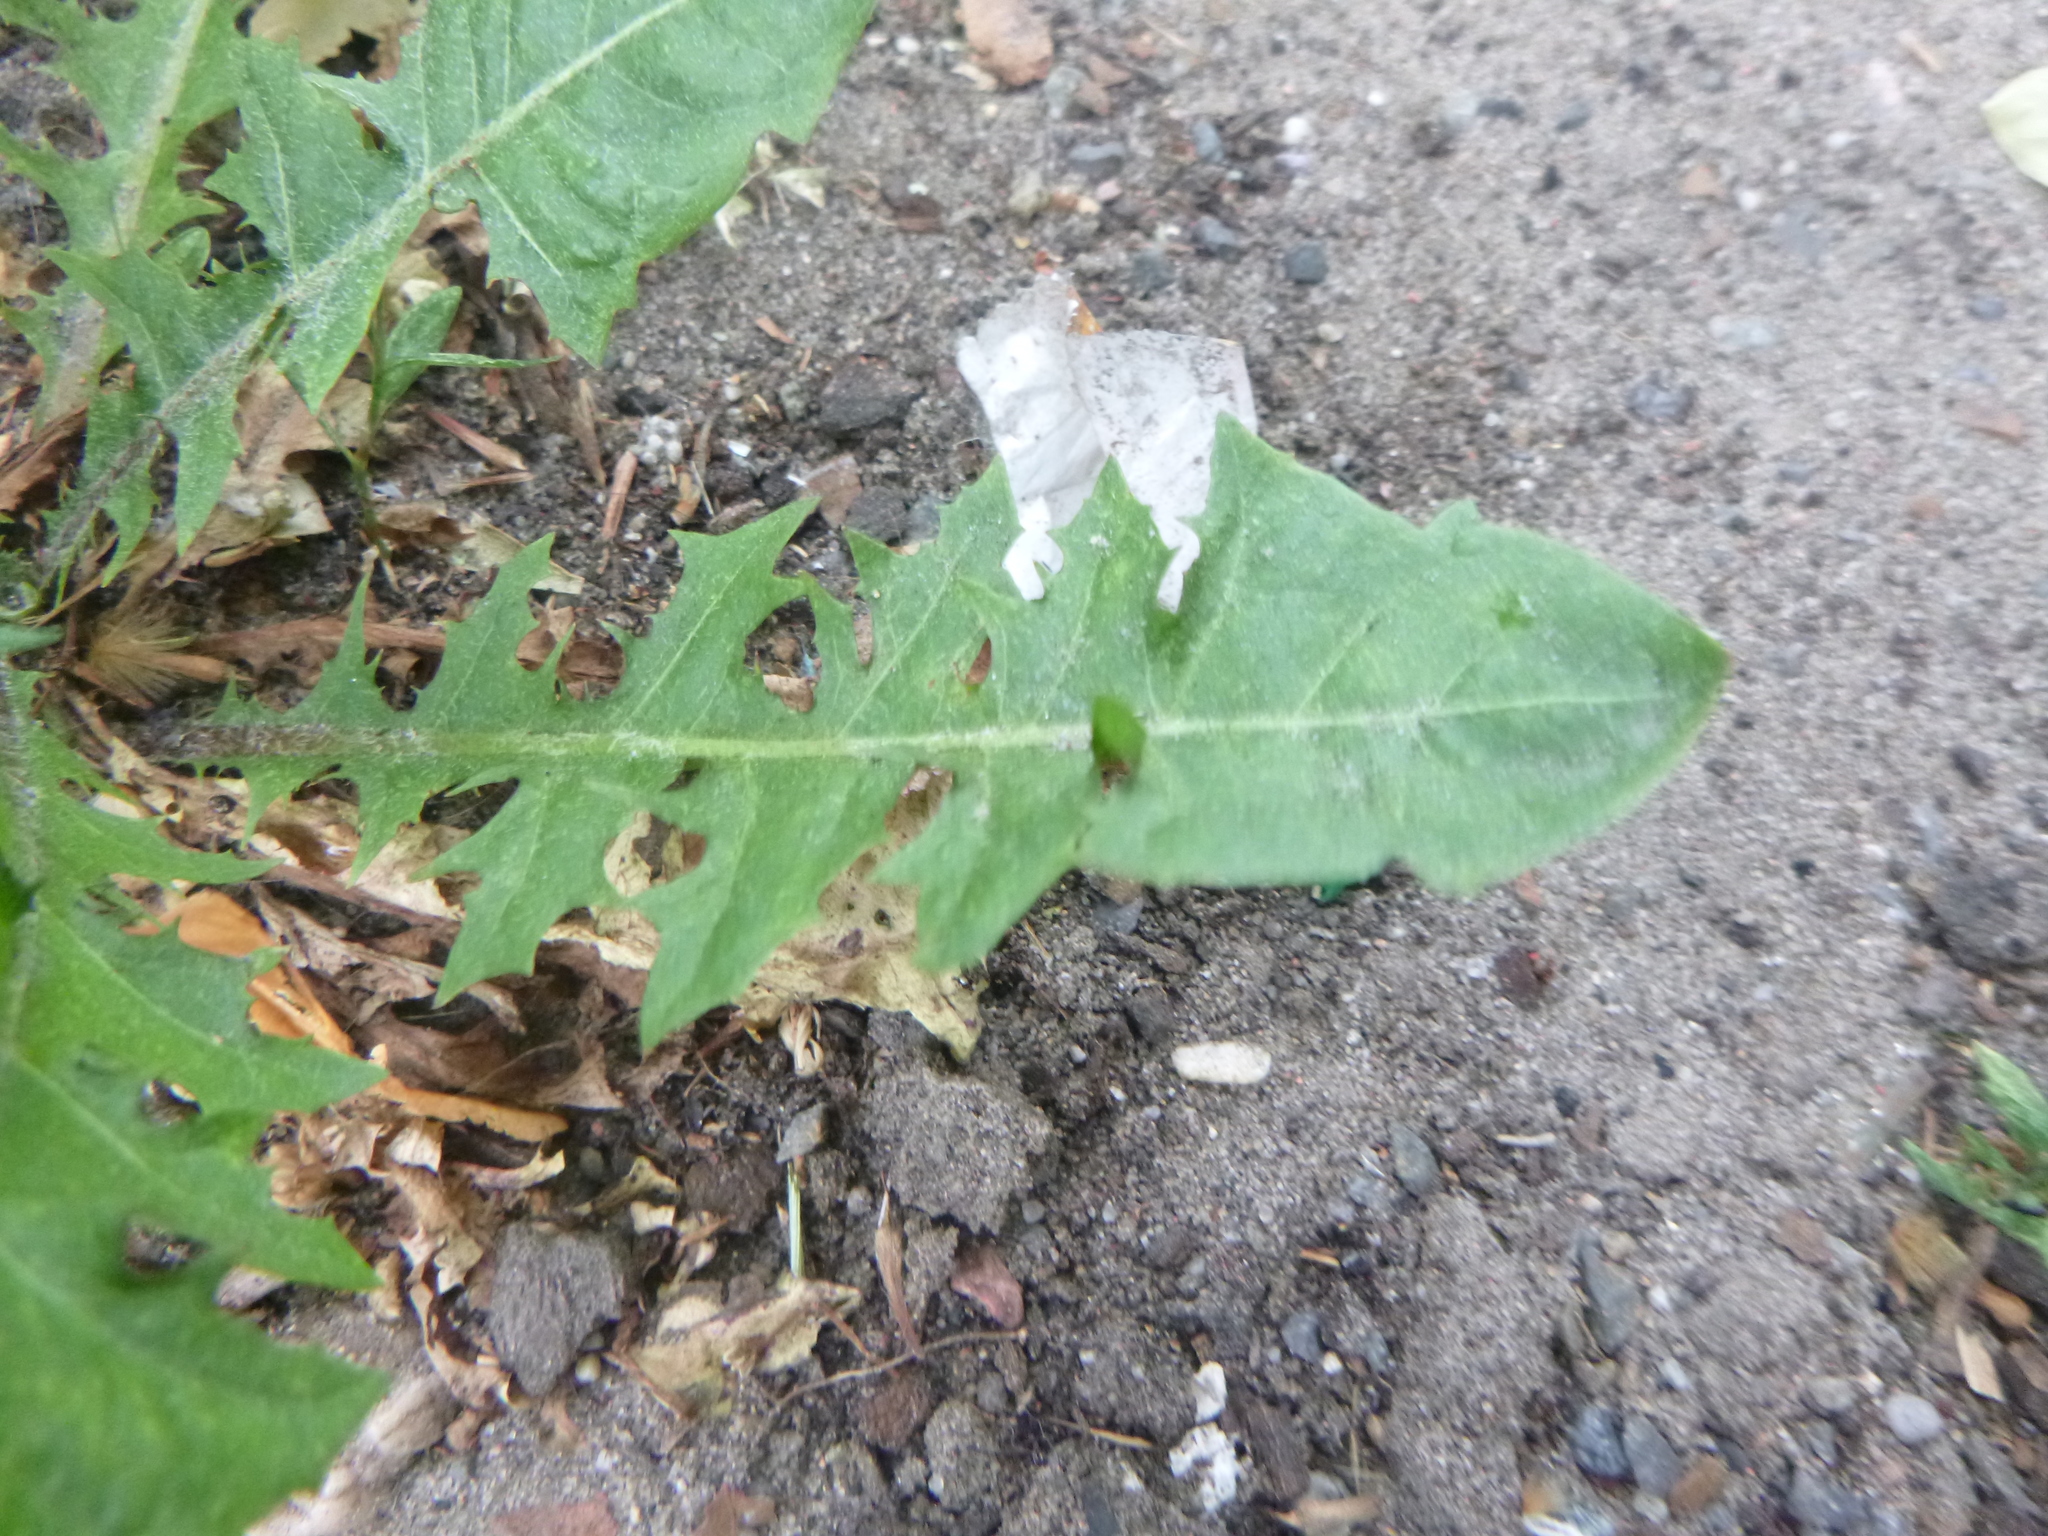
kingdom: Plantae
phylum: Tracheophyta
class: Magnoliopsida
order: Asterales
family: Asteraceae
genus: Taraxacum
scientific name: Taraxacum officinale
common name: Common dandelion
